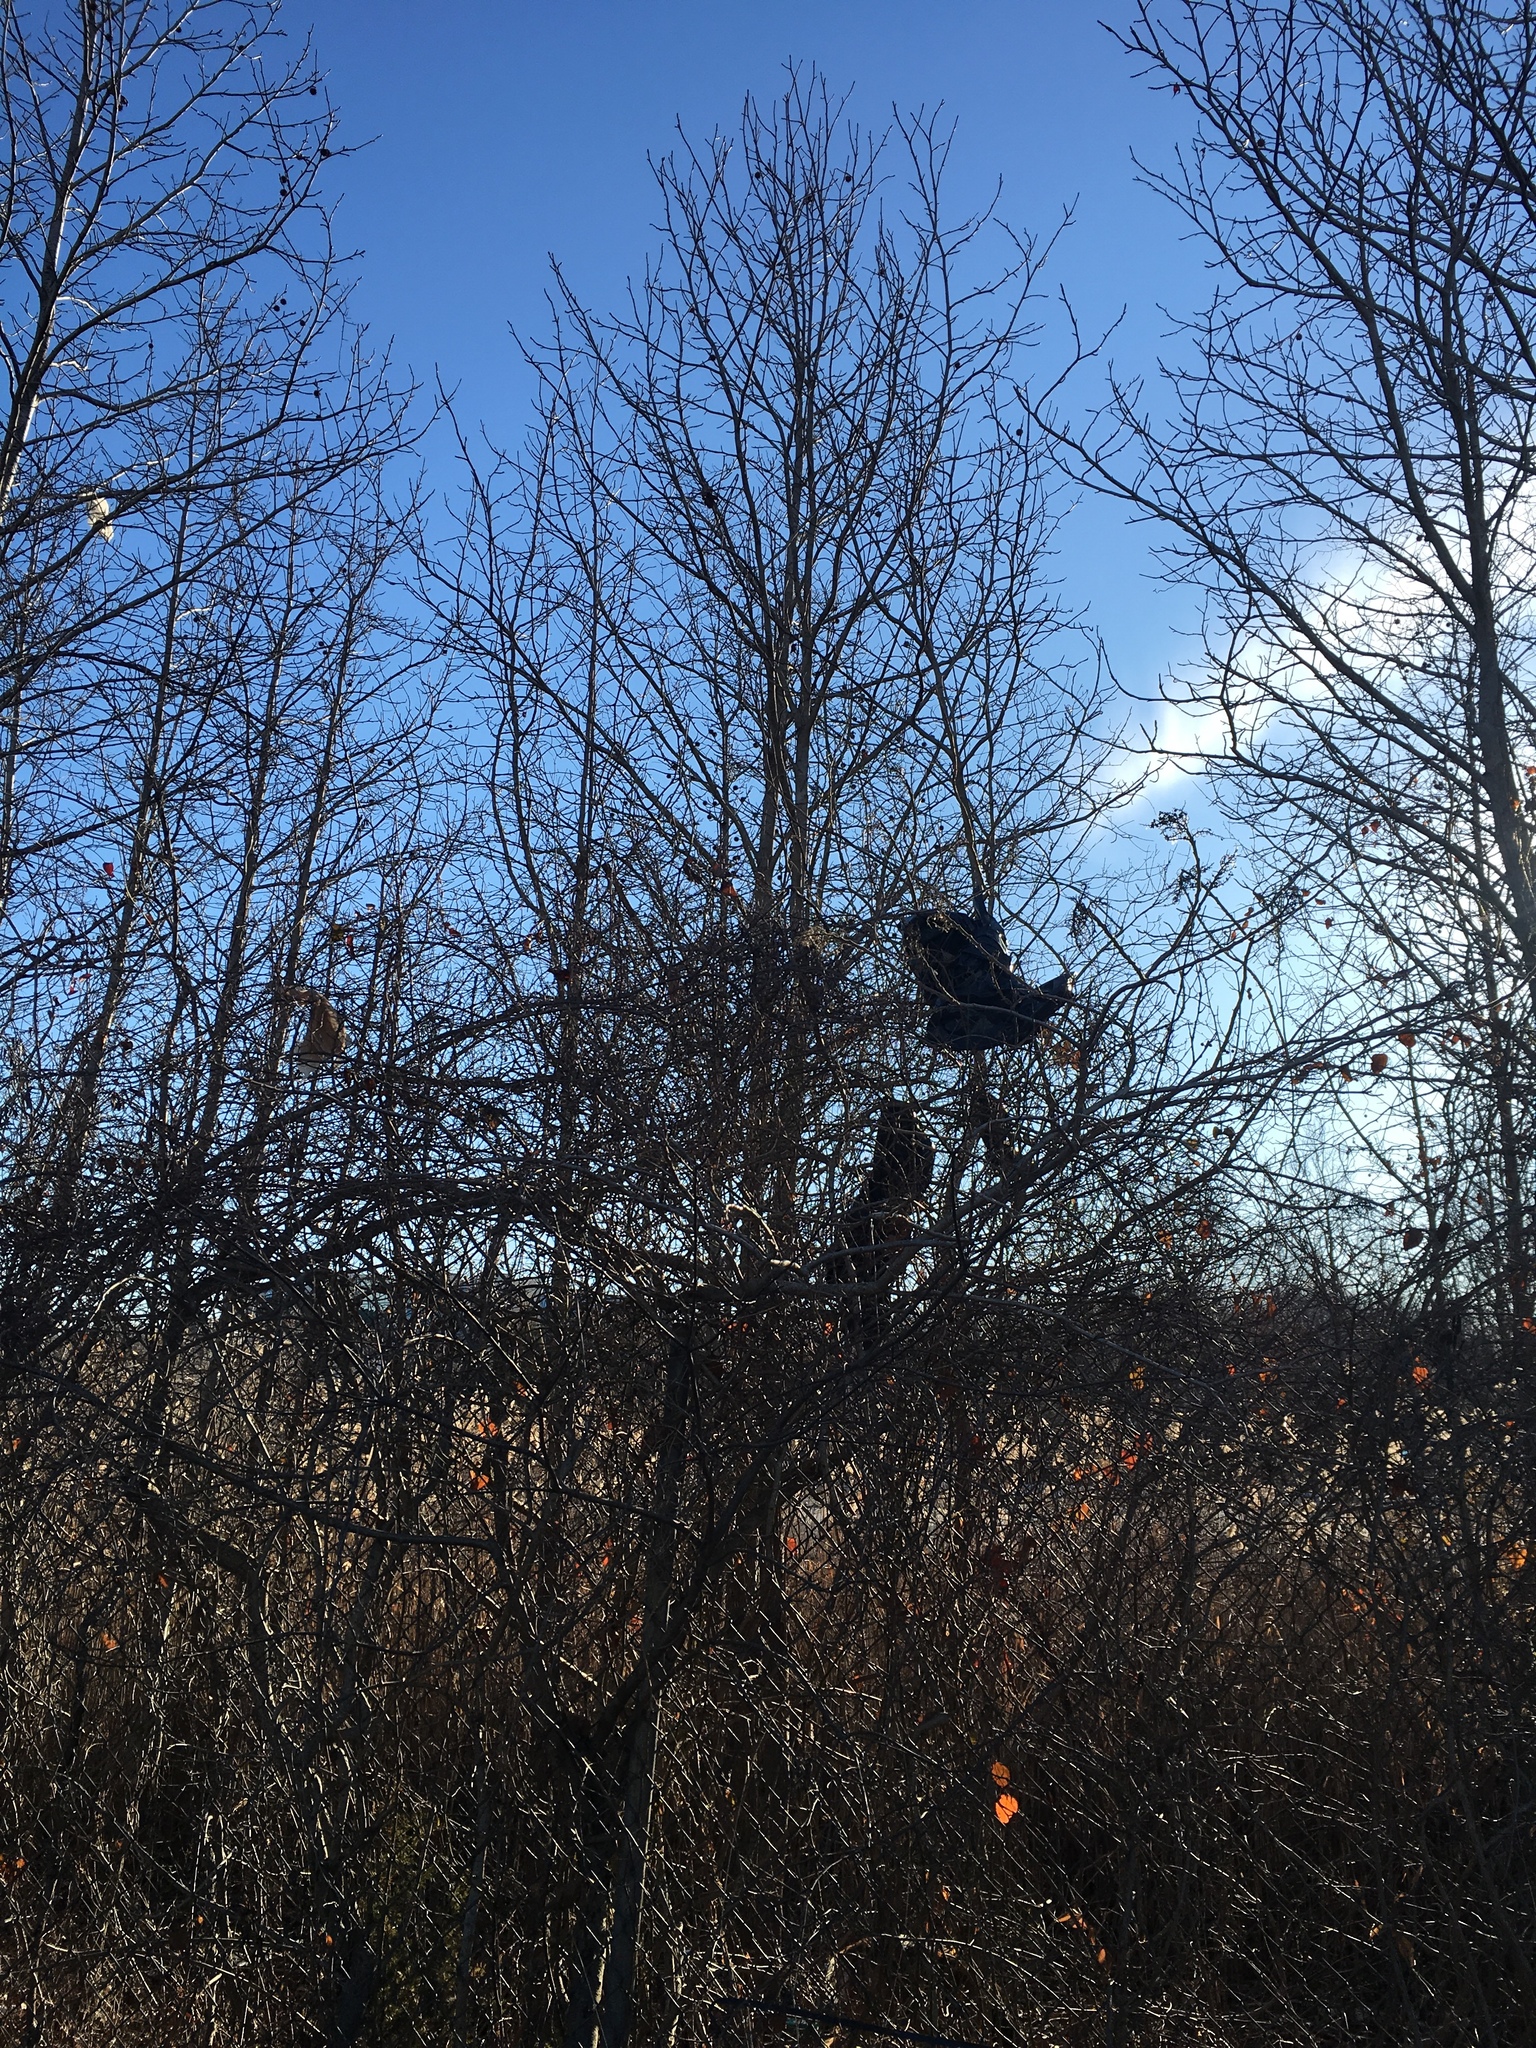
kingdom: Plantae
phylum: Tracheophyta
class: Magnoliopsida
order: Saxifragales
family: Altingiaceae
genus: Liquidambar
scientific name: Liquidambar styraciflua
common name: Sweet gum
